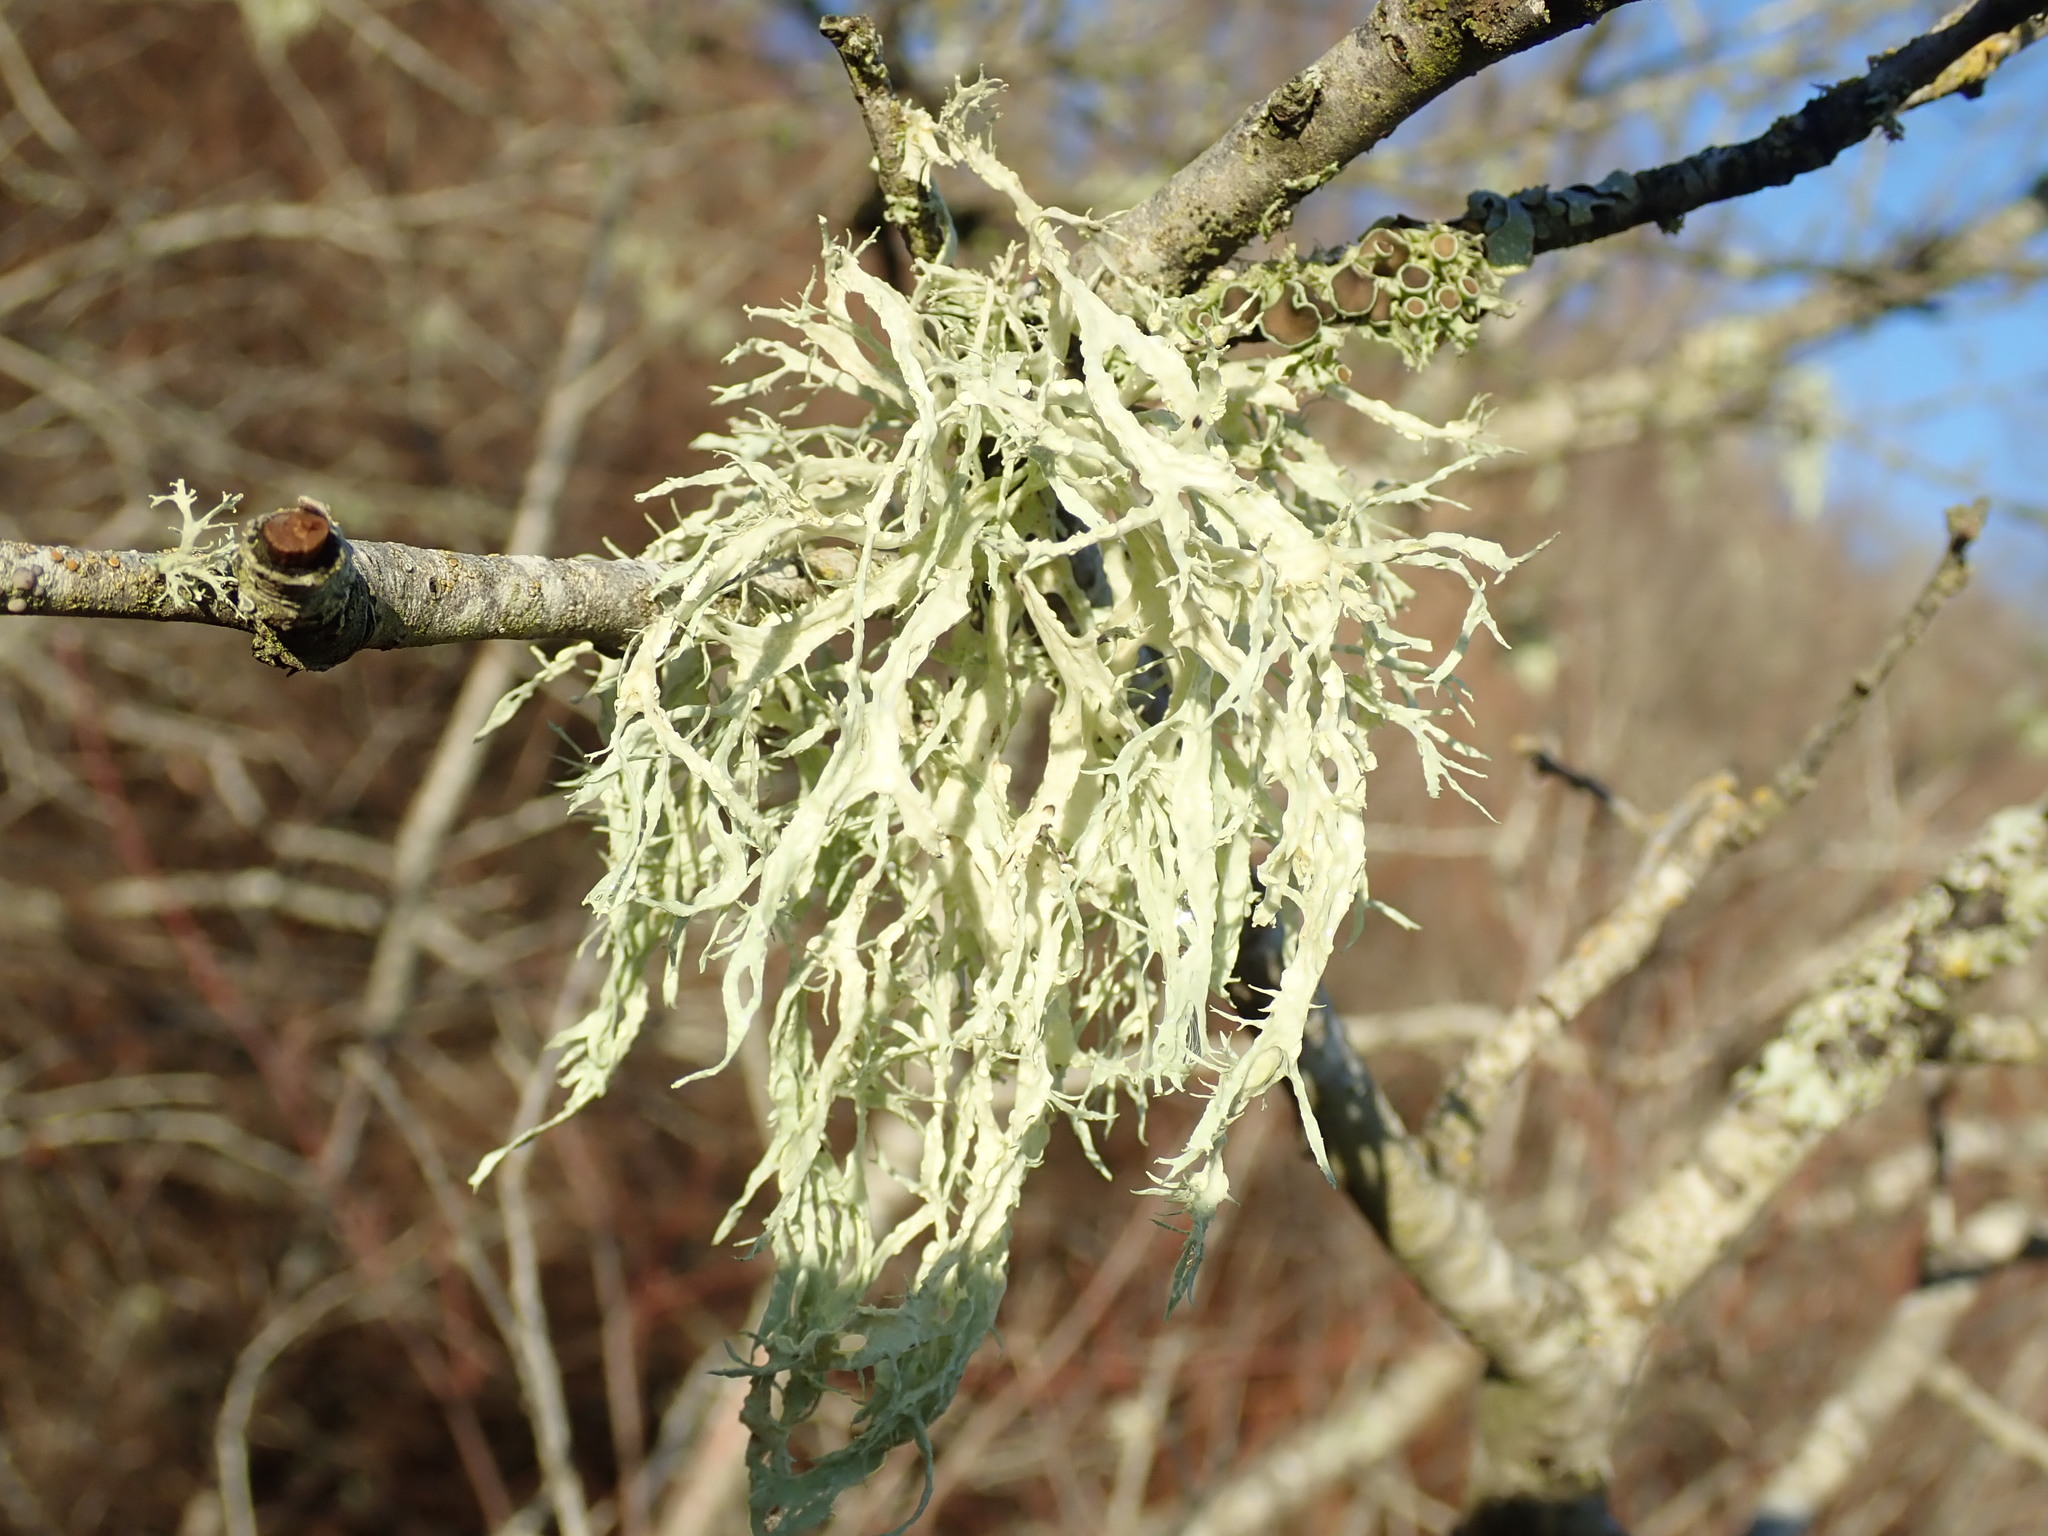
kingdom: Fungi
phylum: Ascomycota
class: Lecanoromycetes
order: Lecanorales
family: Ramalinaceae
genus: Ramalina
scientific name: Ramalina farinacea
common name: Farinose cartilage lichen
